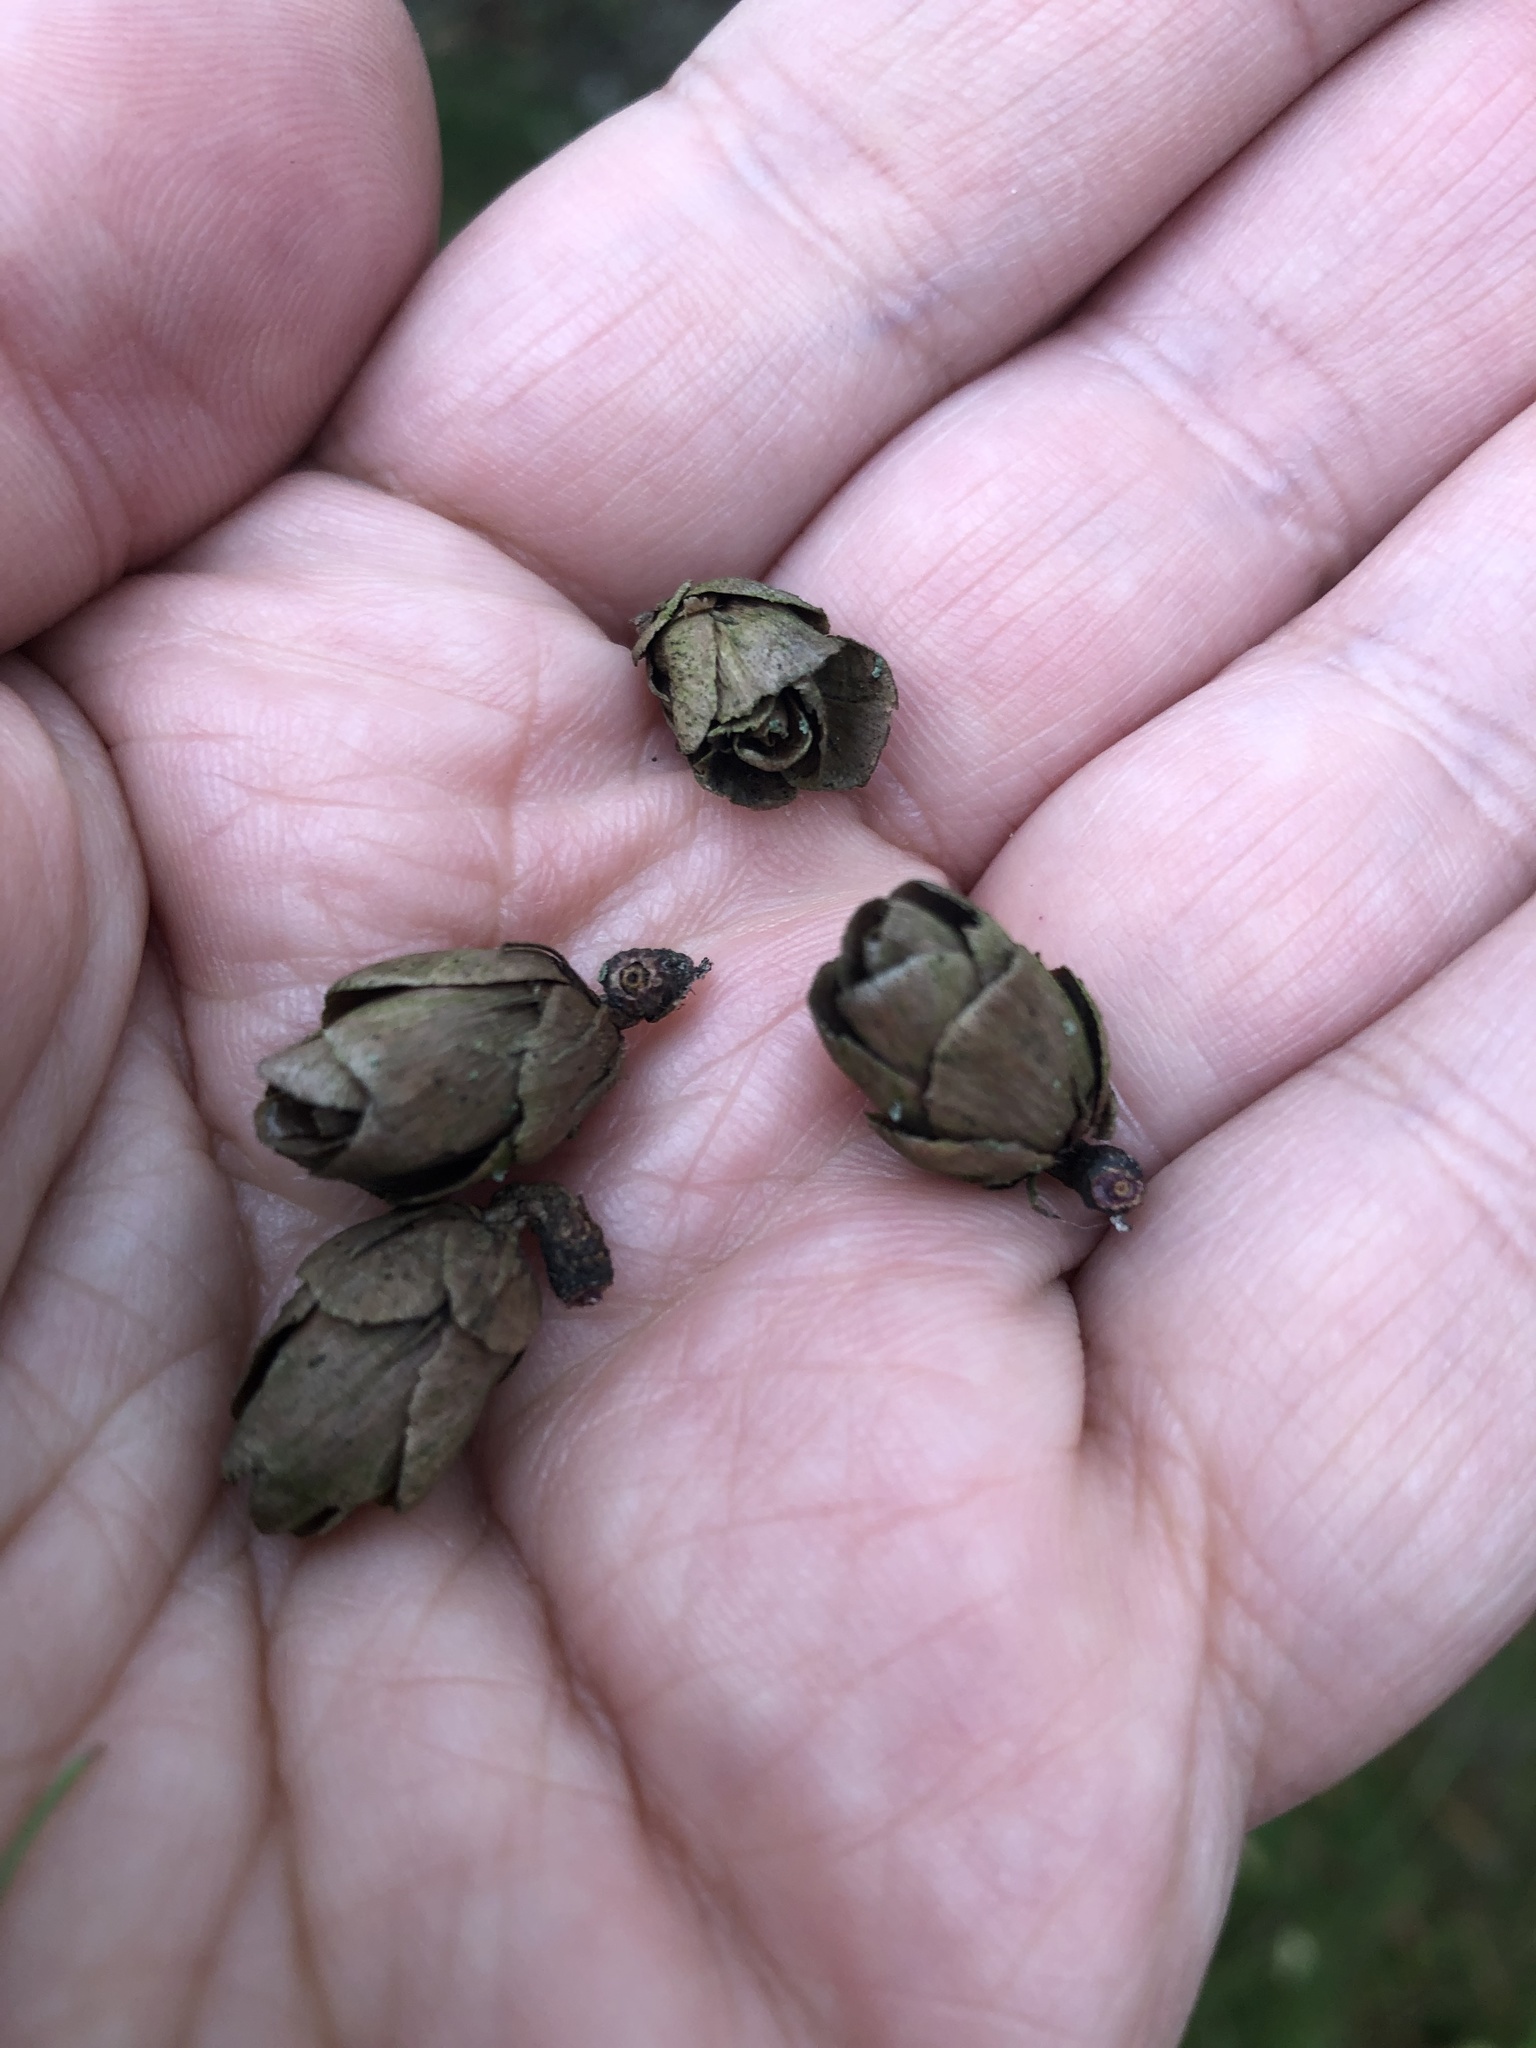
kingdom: Plantae
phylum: Tracheophyta
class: Pinopsida
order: Pinales
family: Pinaceae
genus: Larix
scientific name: Larix laricina
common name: American larch
